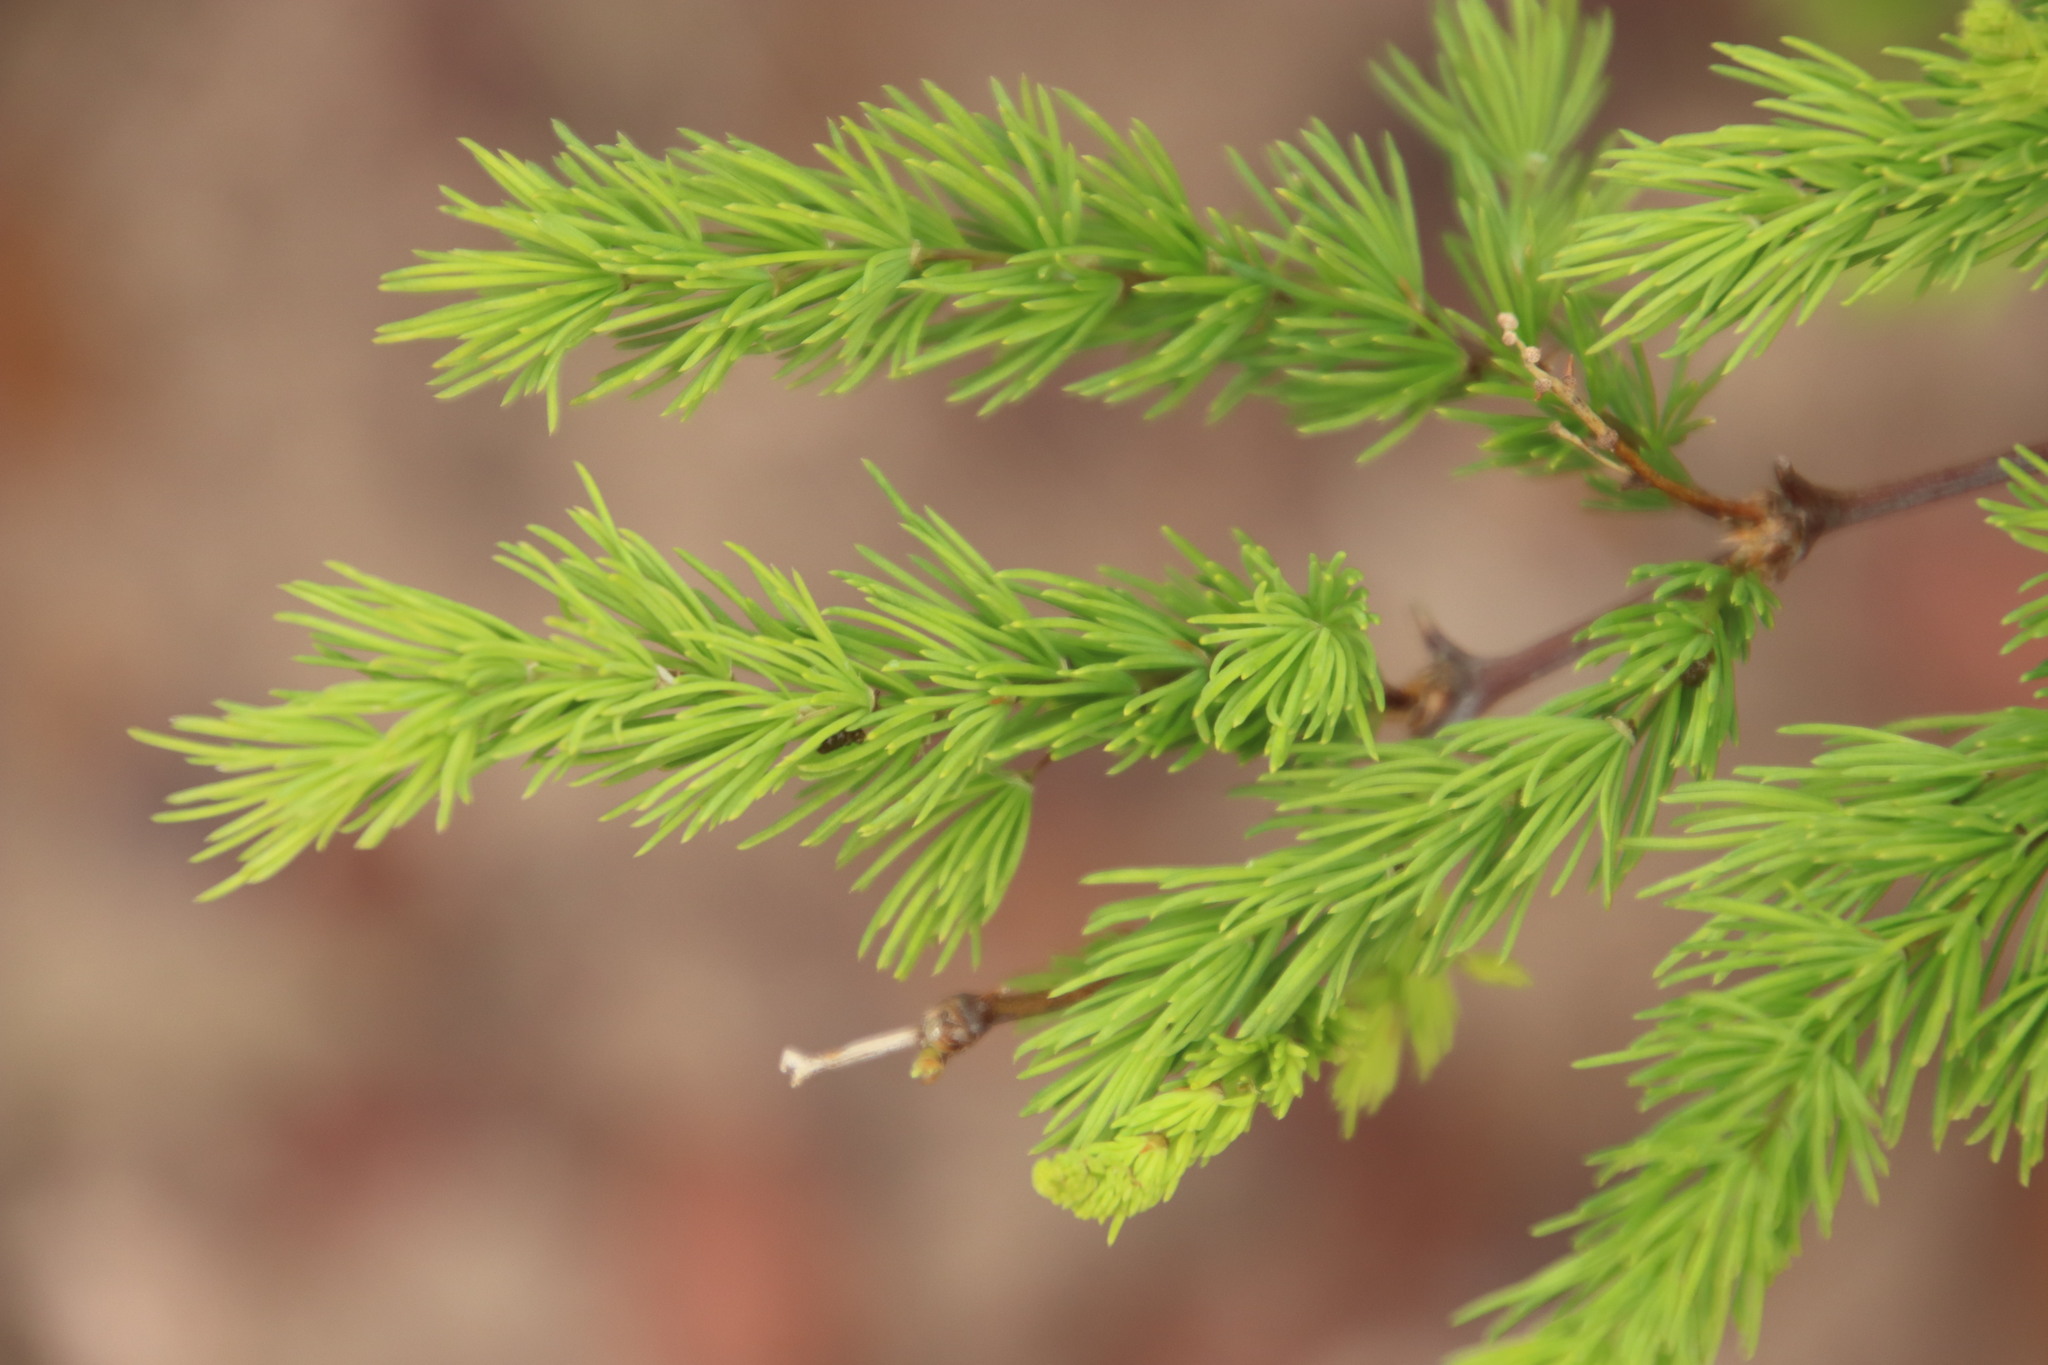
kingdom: Plantae
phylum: Tracheophyta
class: Liliopsida
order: Asparagales
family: Asparagaceae
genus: Asparagus
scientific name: Asparagus rubicundus
